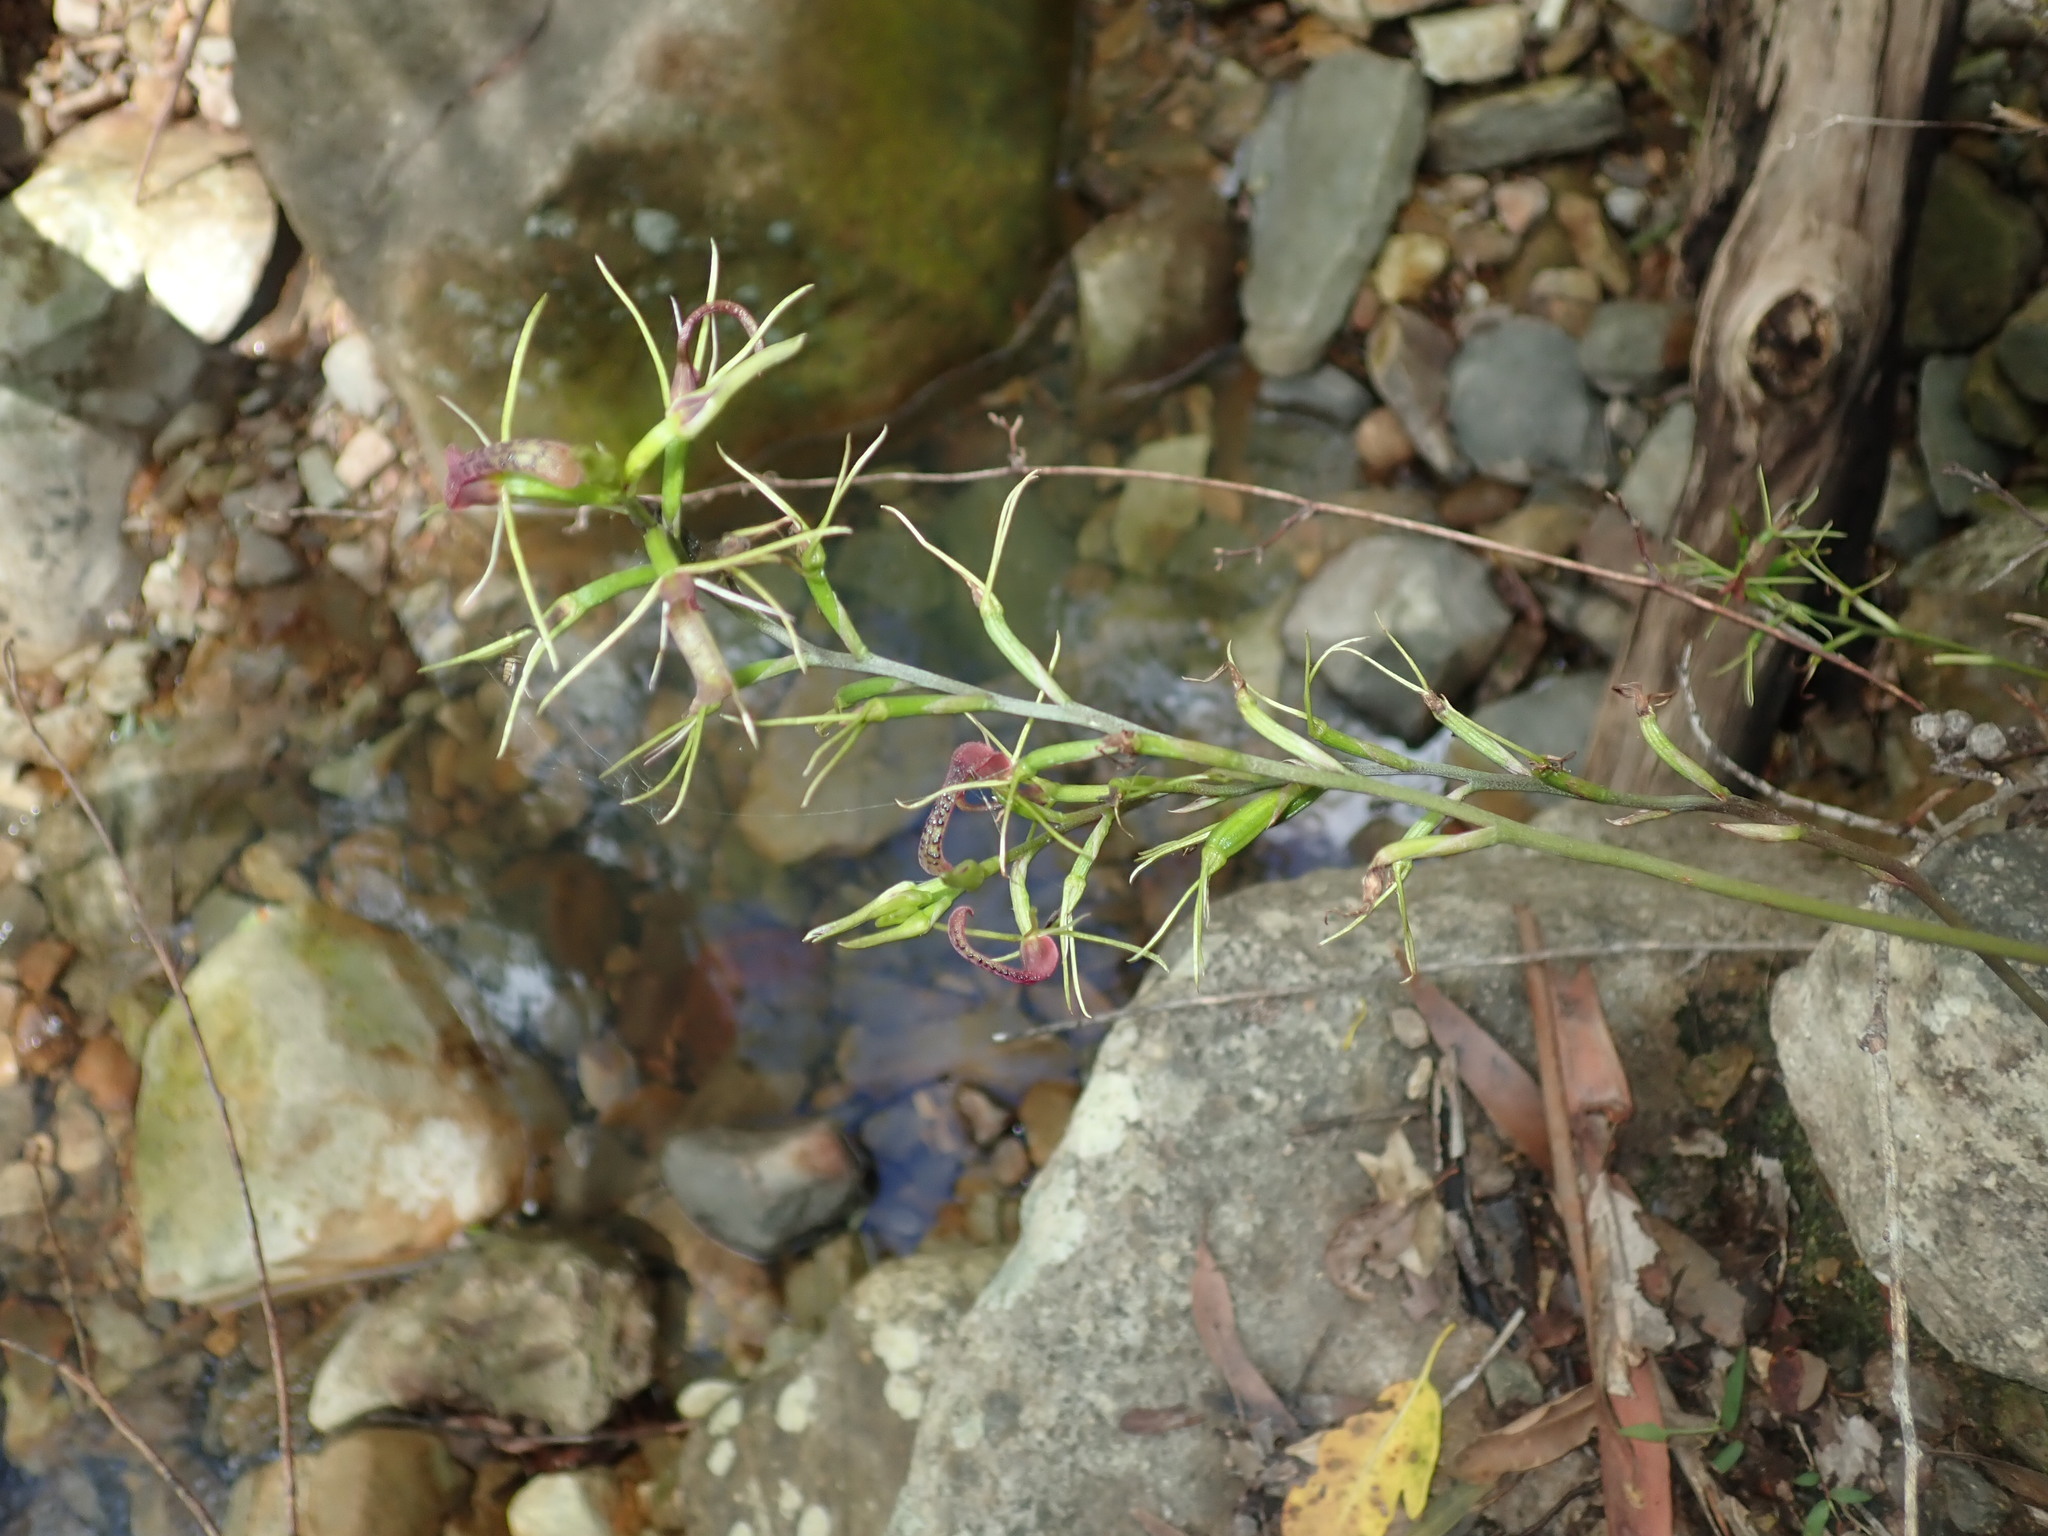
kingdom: Plantae
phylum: Tracheophyta
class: Liliopsida
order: Asparagales
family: Orchidaceae
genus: Cryptostylis
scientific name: Cryptostylis leptochila
